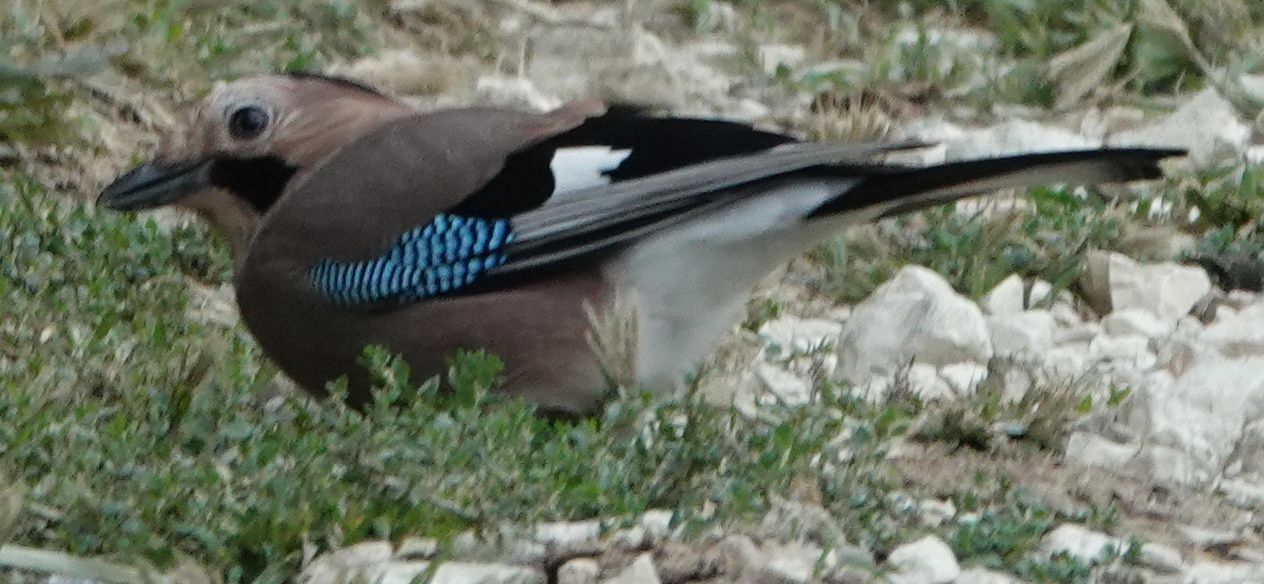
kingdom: Animalia
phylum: Chordata
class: Aves
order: Passeriformes
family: Corvidae
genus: Garrulus
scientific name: Garrulus glandarius
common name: Eurasian jay
